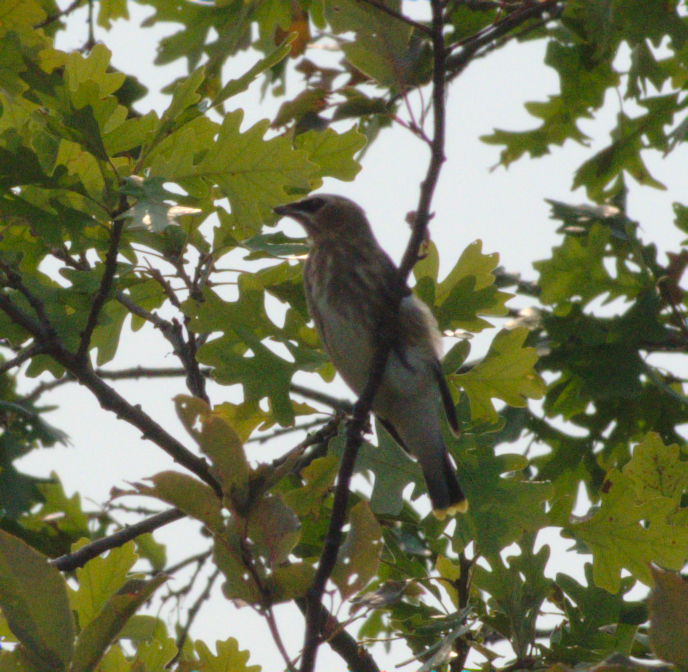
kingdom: Animalia
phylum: Chordata
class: Aves
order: Passeriformes
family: Bombycillidae
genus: Bombycilla
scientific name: Bombycilla cedrorum
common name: Cedar waxwing
